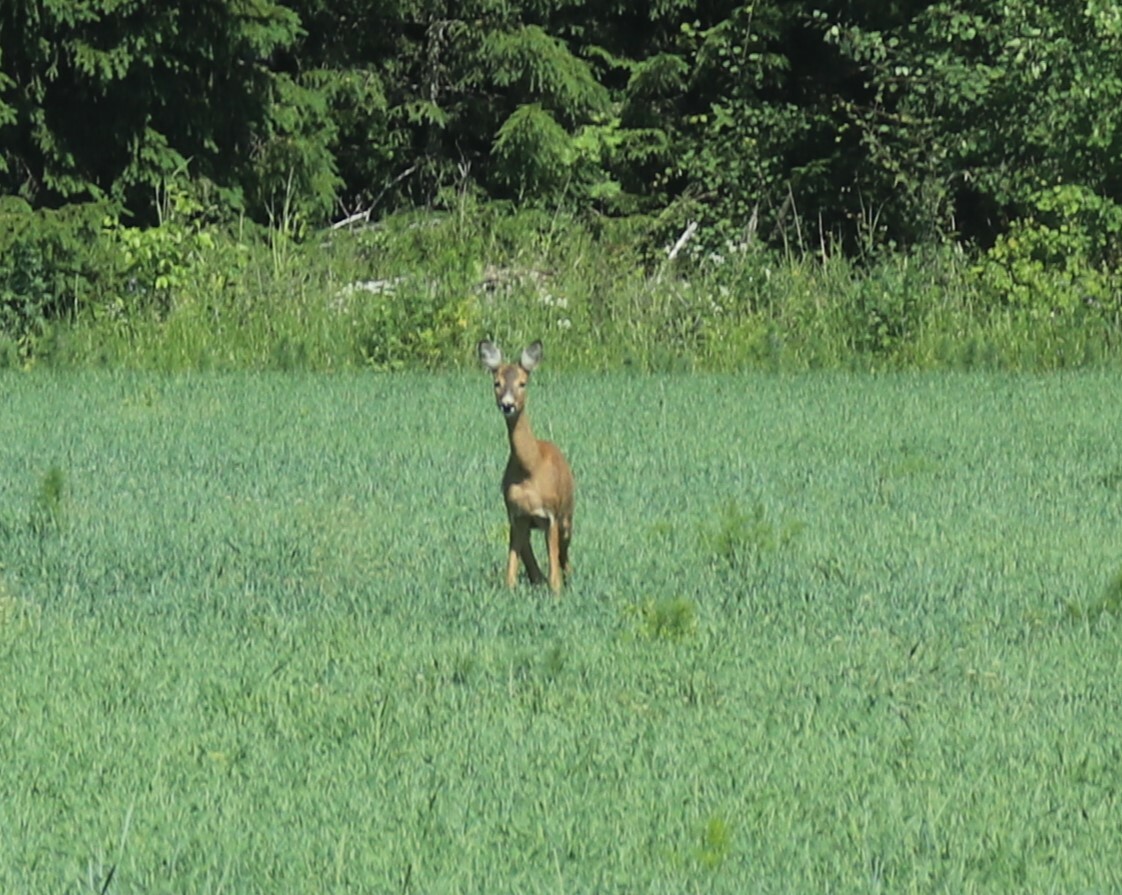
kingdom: Animalia
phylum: Chordata
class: Mammalia
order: Artiodactyla
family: Cervidae
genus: Capreolus
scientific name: Capreolus capreolus
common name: Western roe deer
